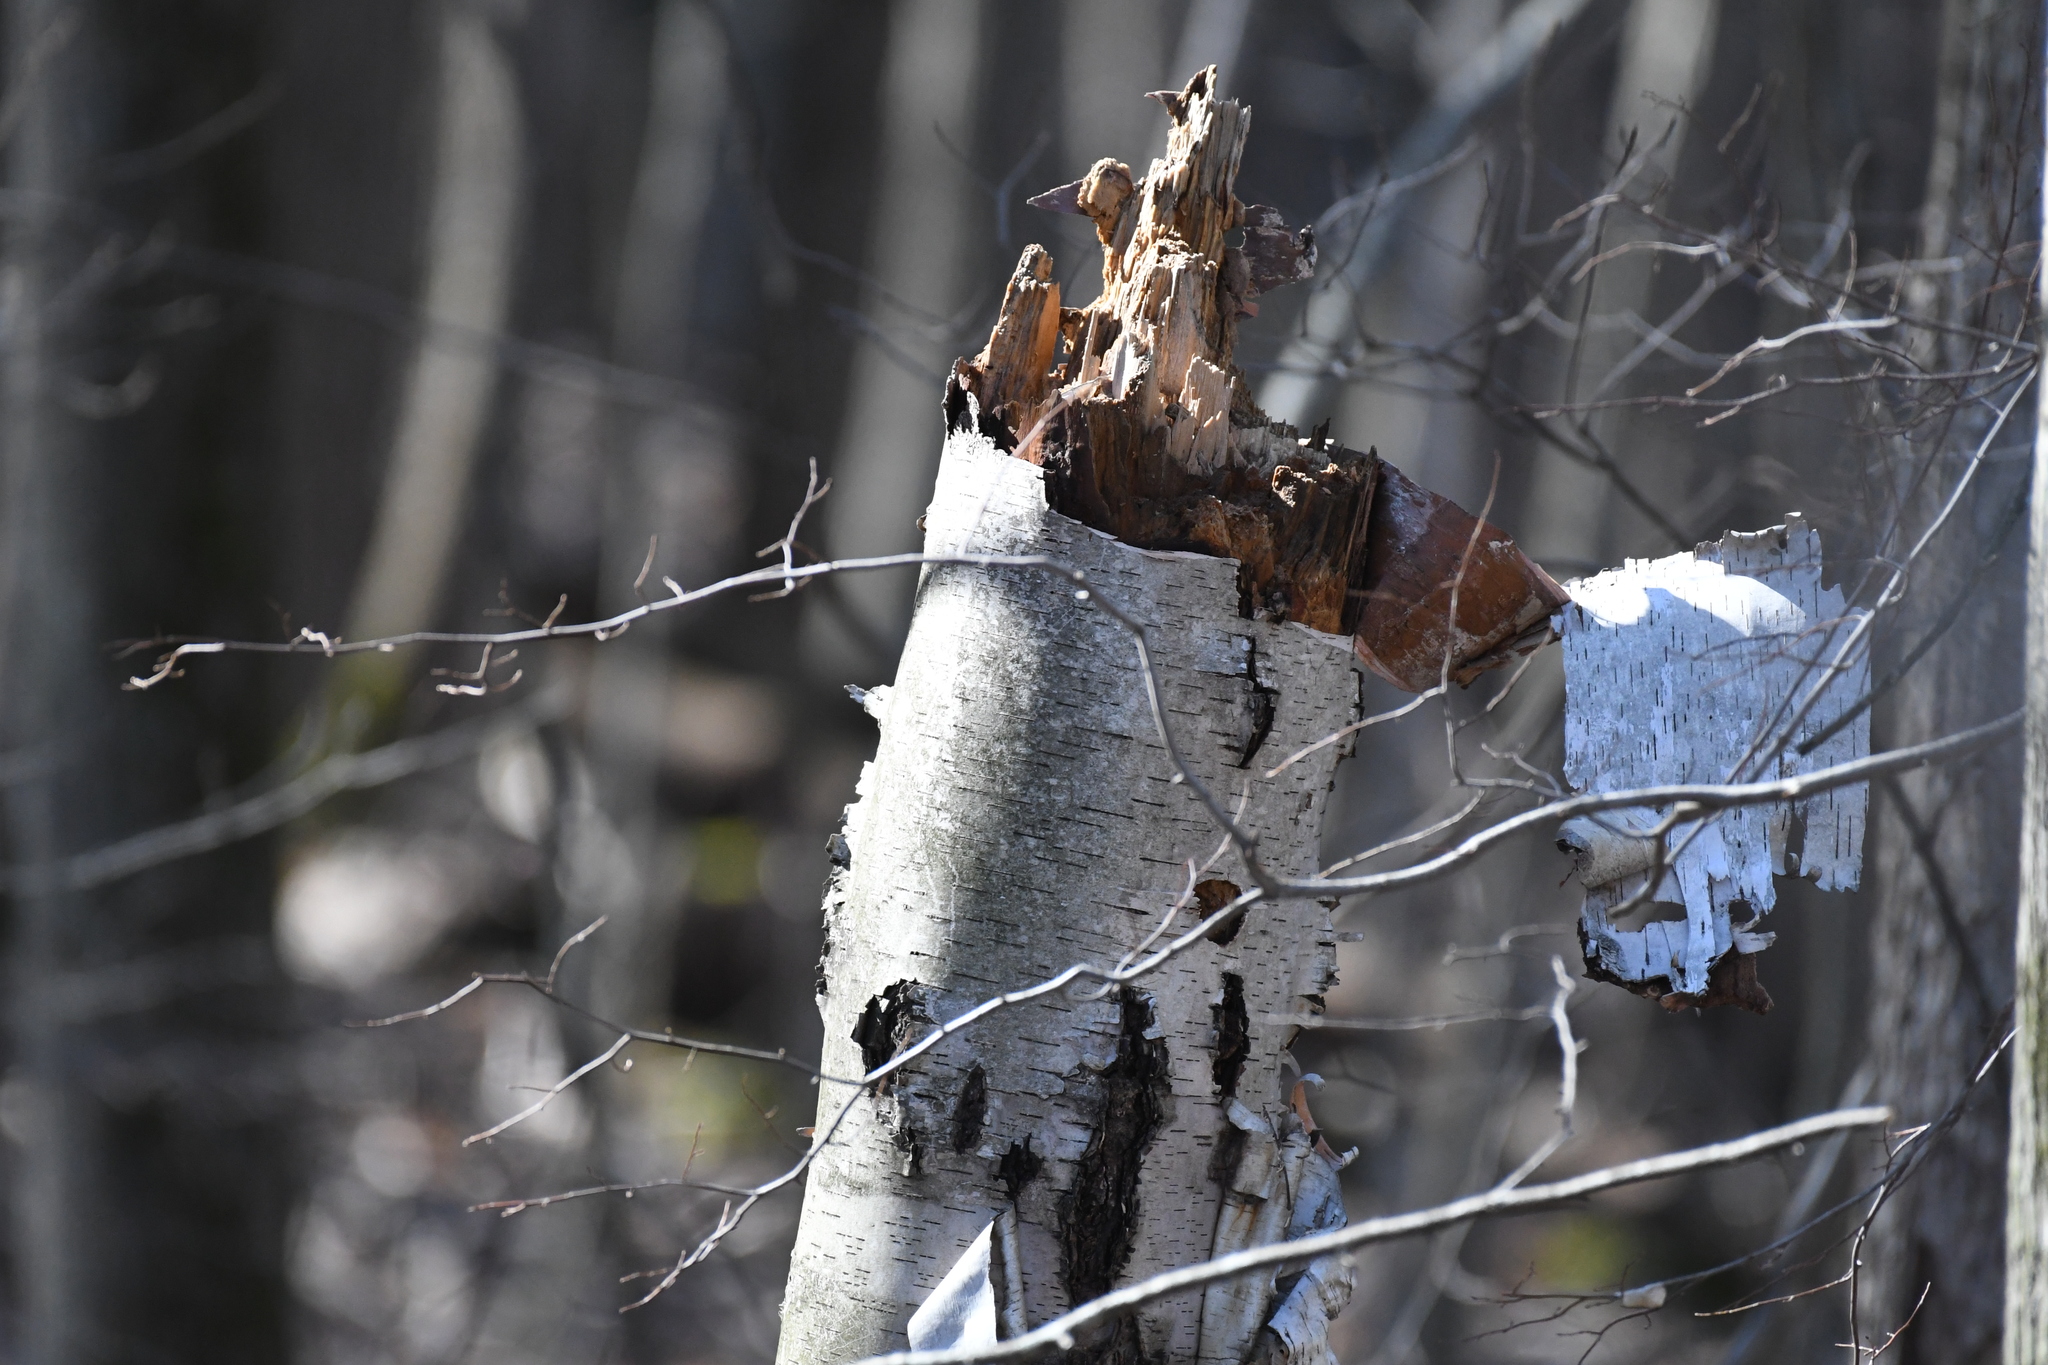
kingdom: Plantae
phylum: Tracheophyta
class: Magnoliopsida
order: Fagales
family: Betulaceae
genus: Betula
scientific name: Betula papyrifera
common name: Paper birch
